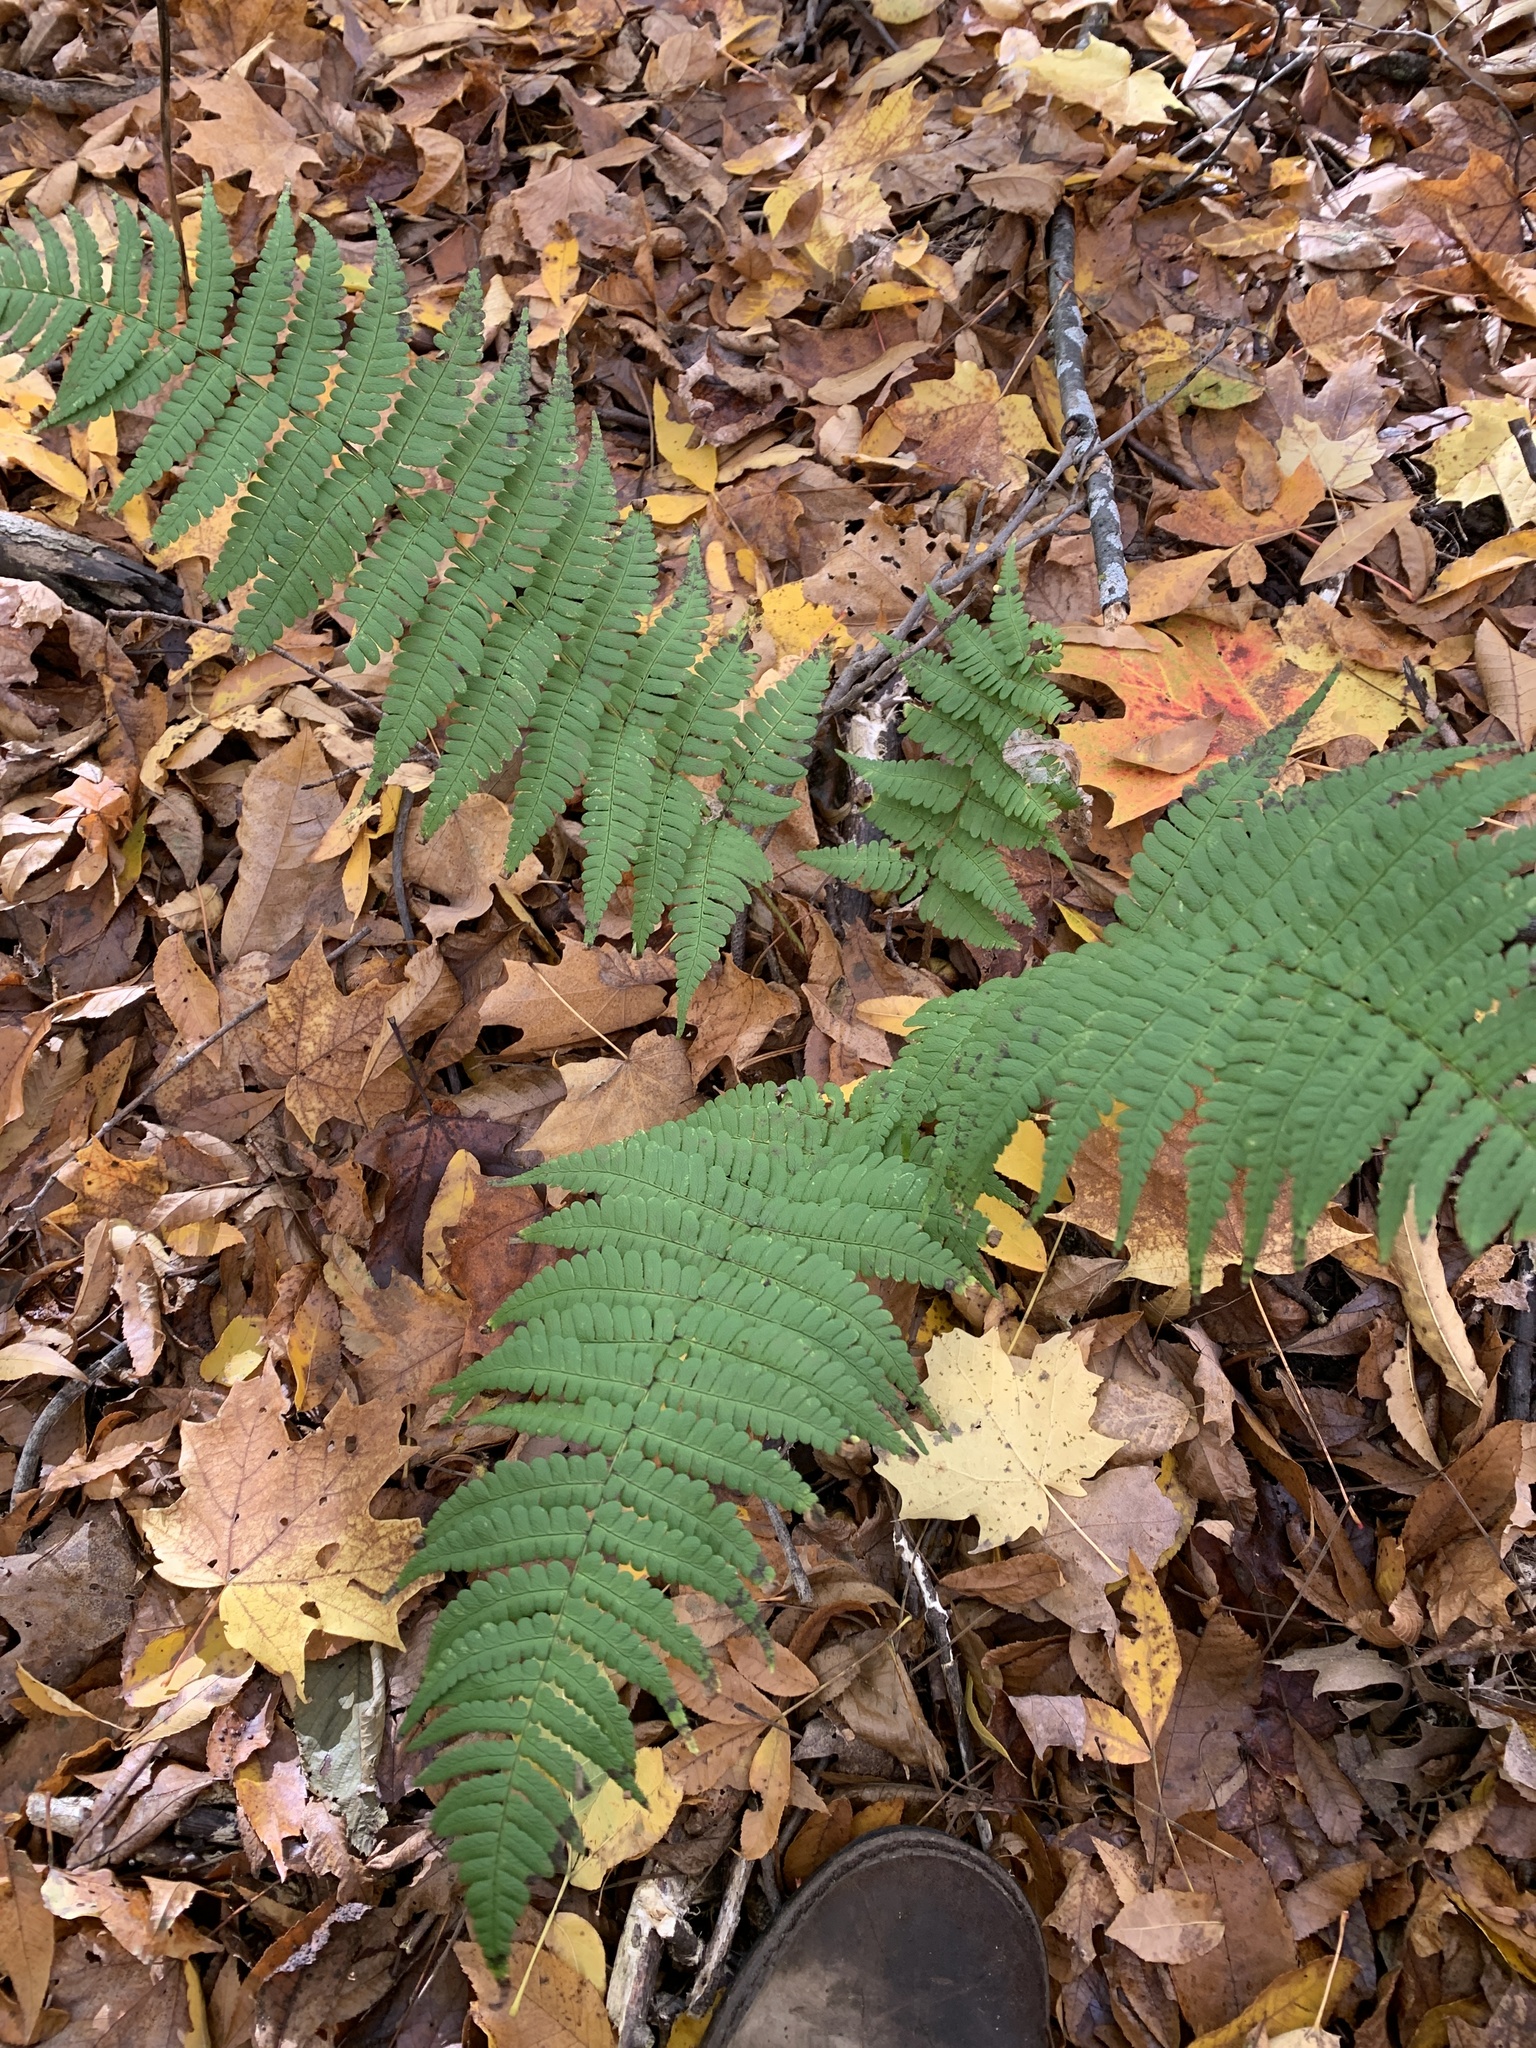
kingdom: Plantae
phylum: Tracheophyta
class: Polypodiopsida
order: Polypodiales
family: Dryopteridaceae
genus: Dryopteris
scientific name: Dryopteris marginalis
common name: Marginal wood fern
